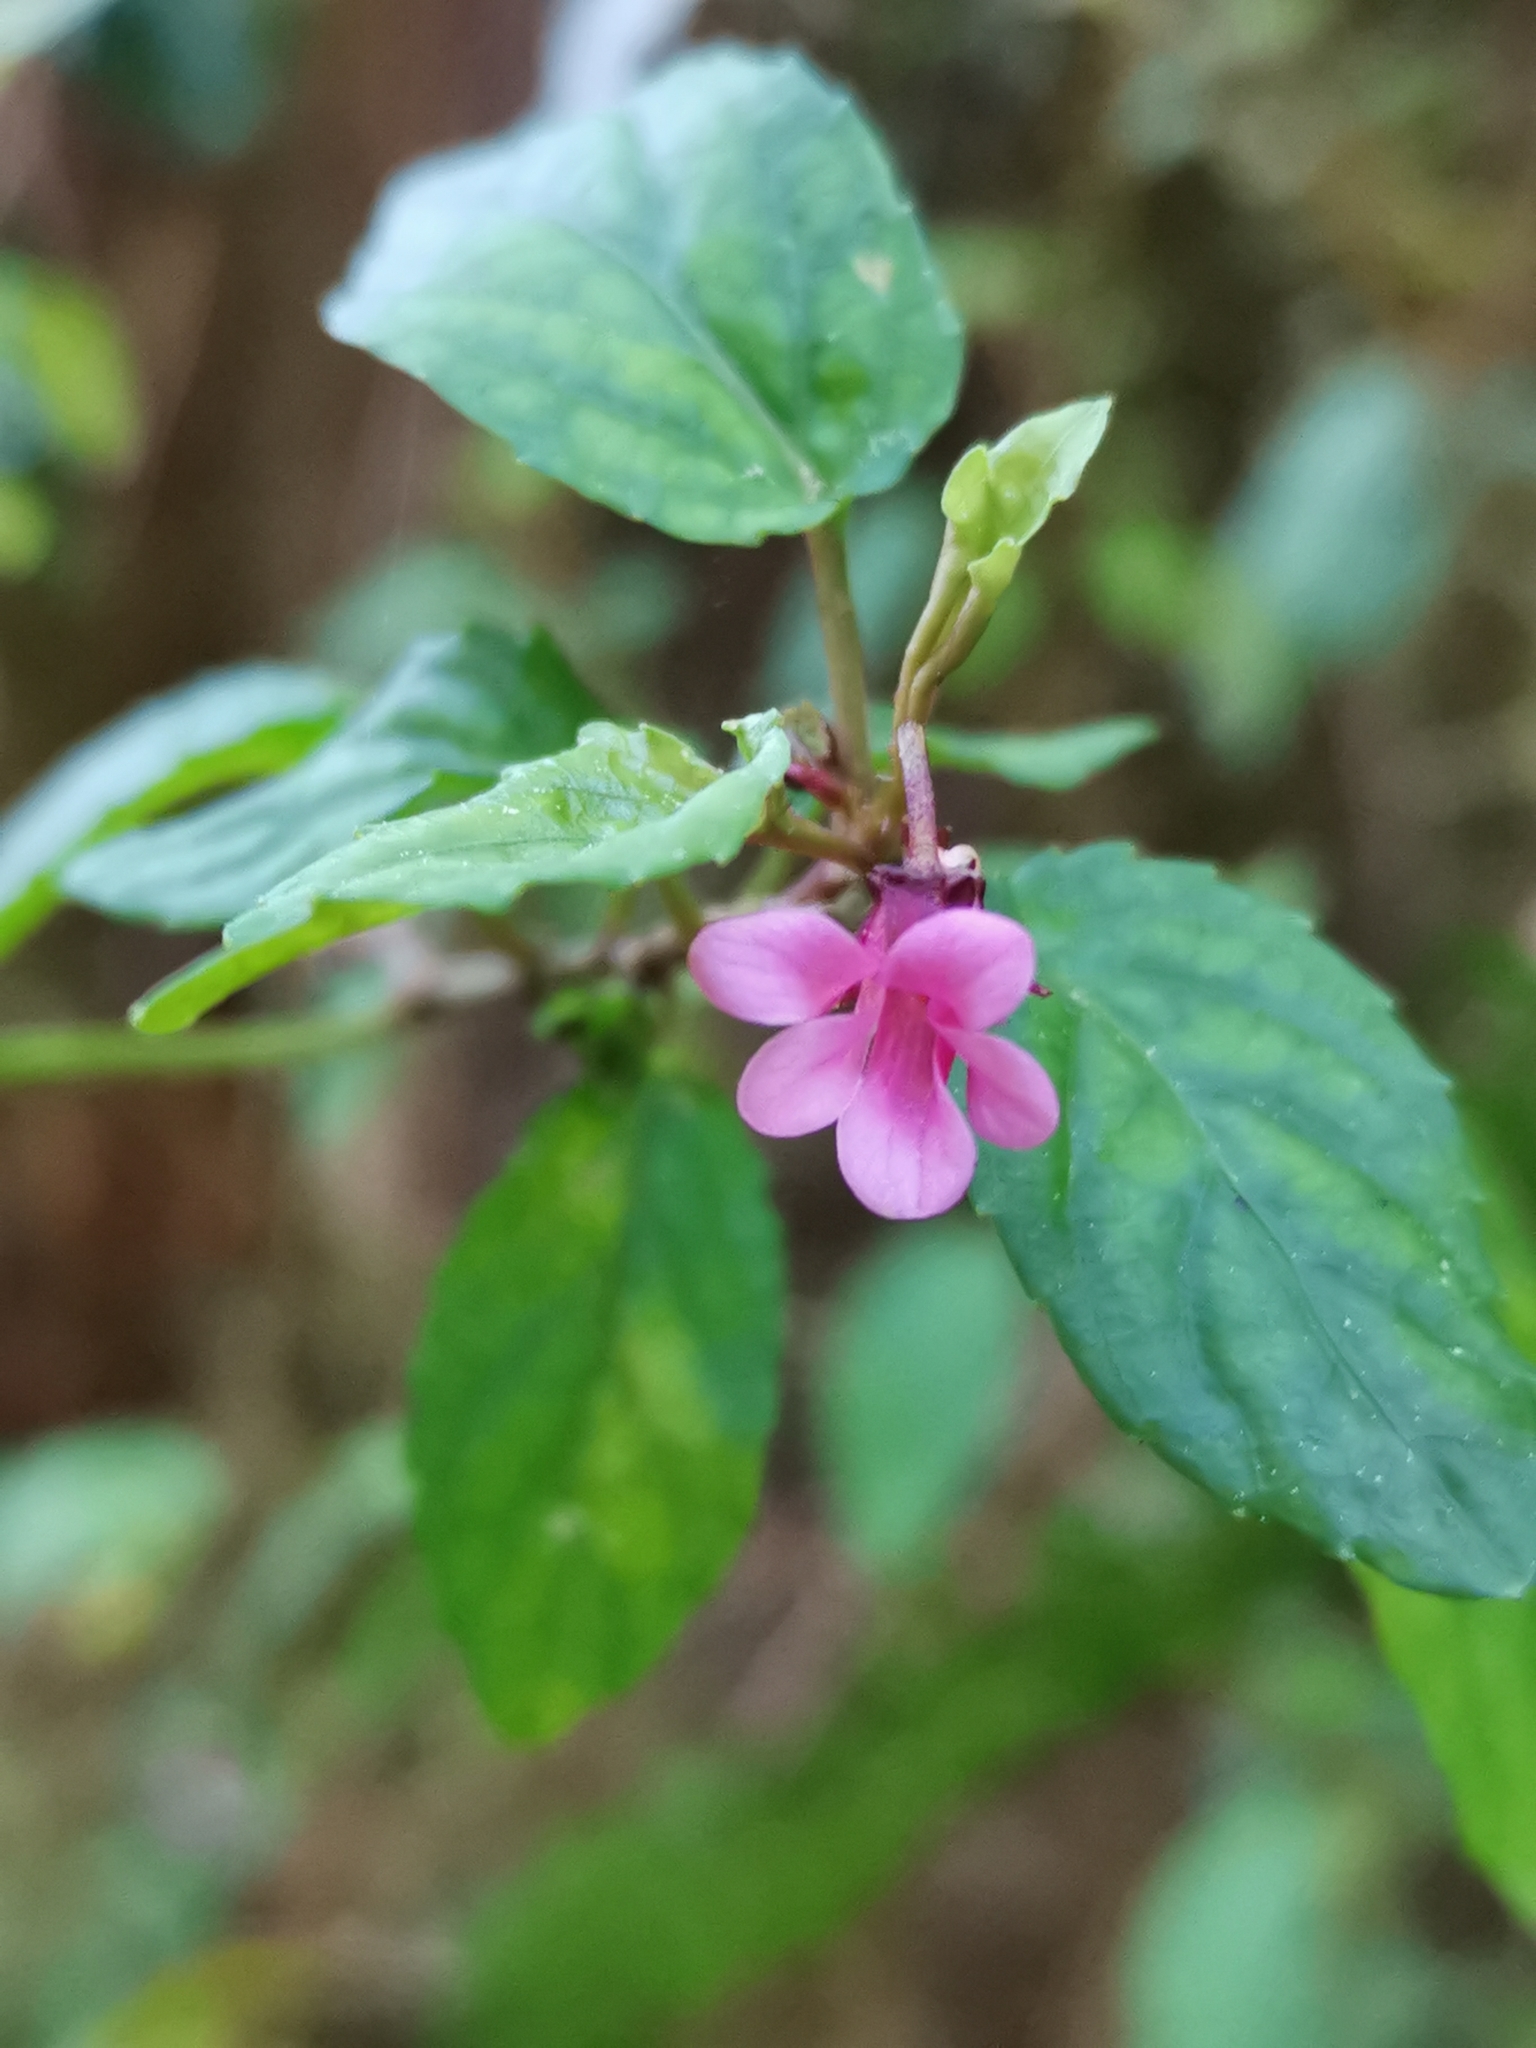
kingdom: Plantae
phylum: Tracheophyta
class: Magnoliopsida
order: Malpighiales
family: Violaceae
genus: Viola
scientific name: Viola rubella
